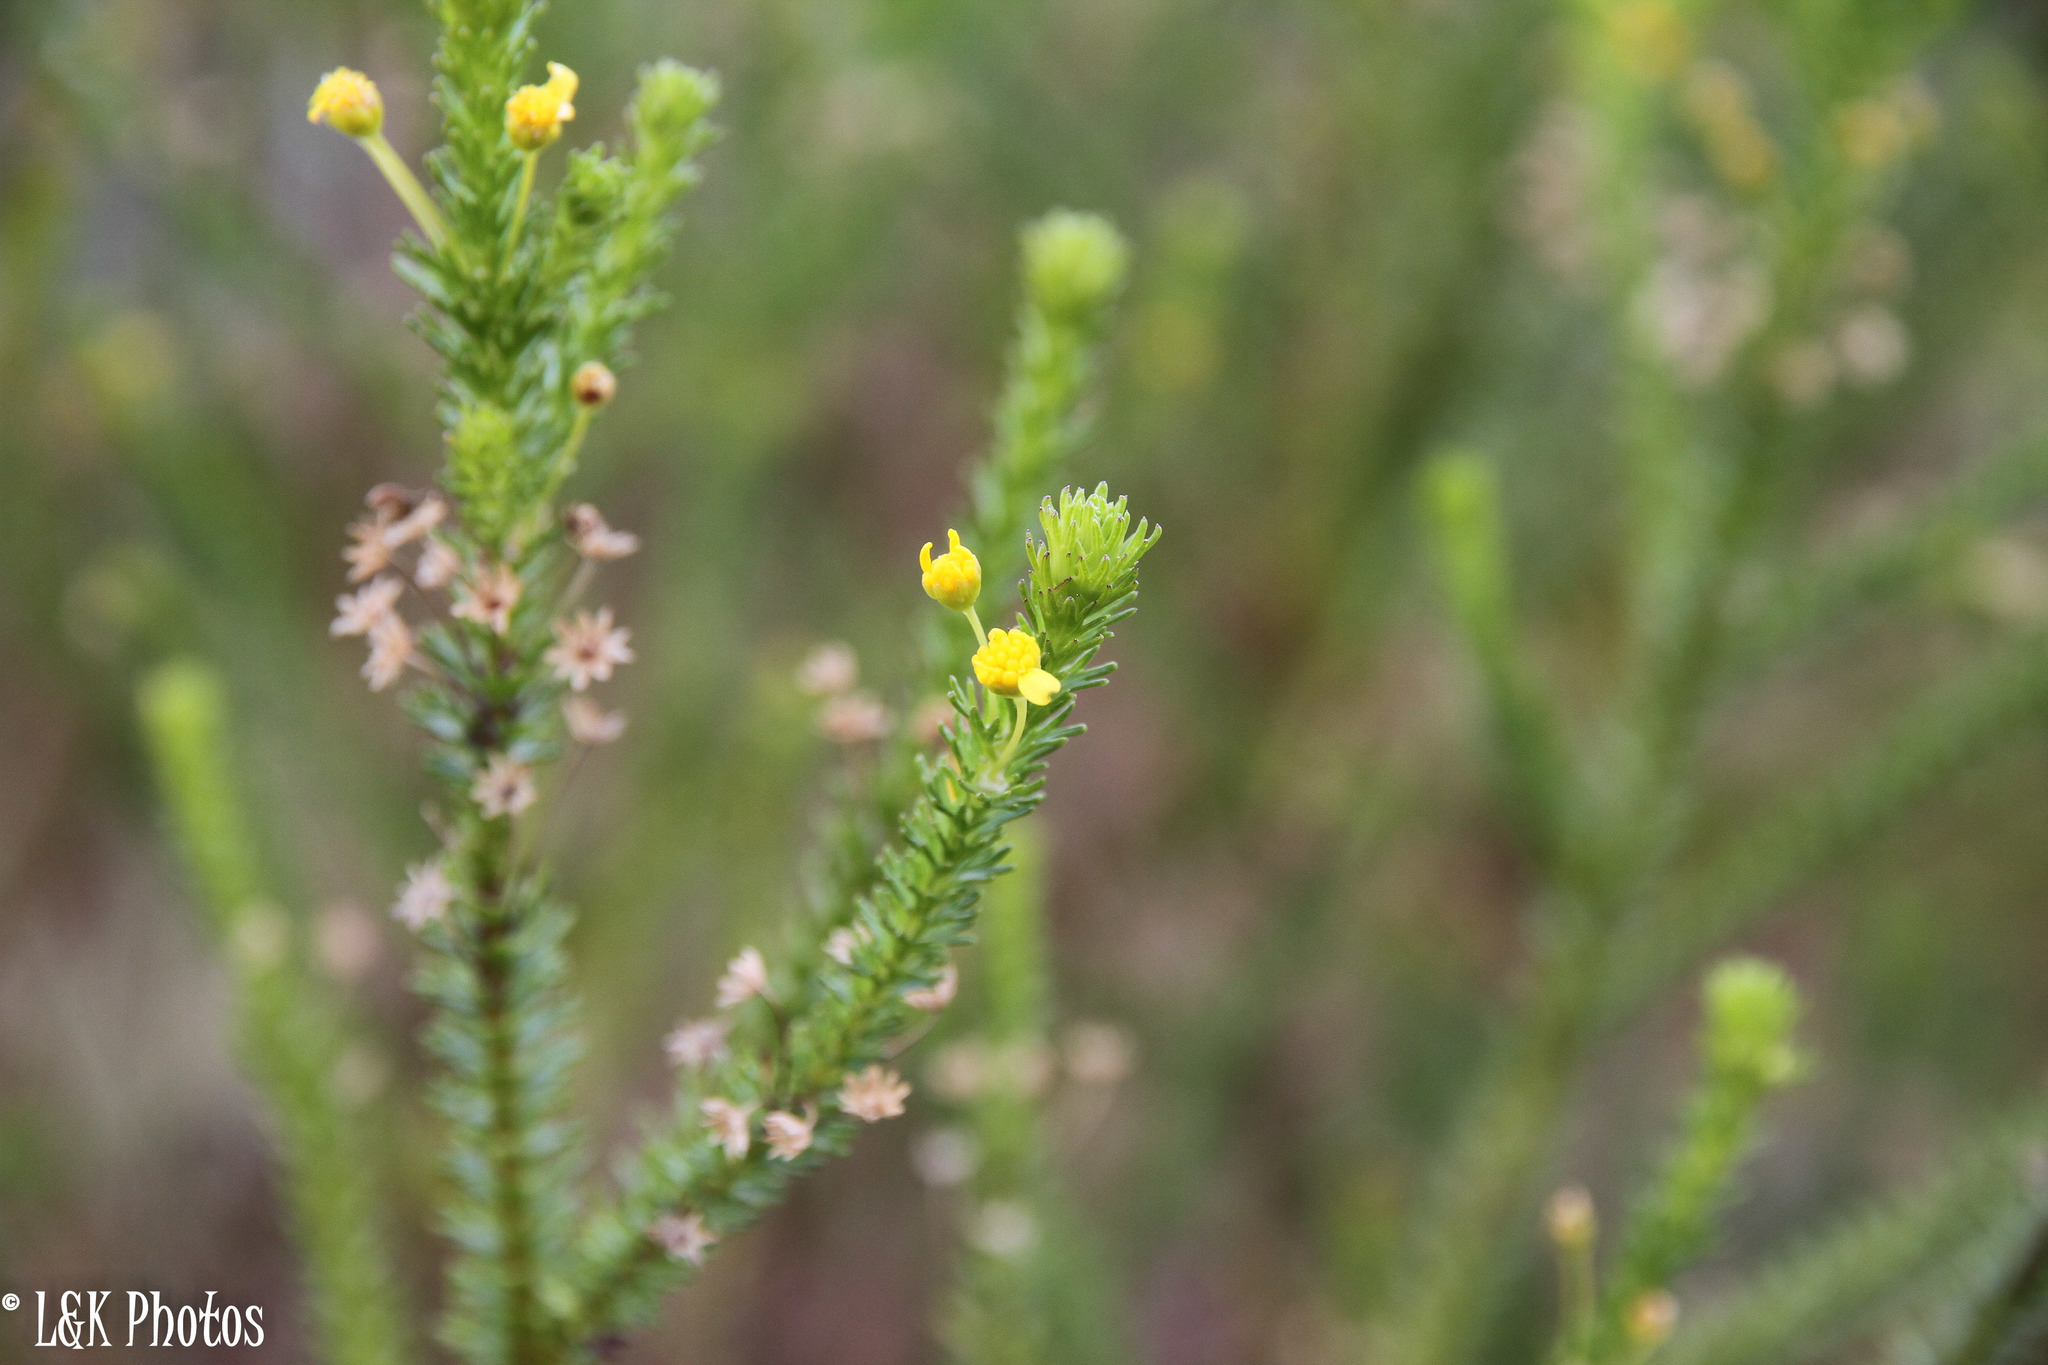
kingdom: Plantae
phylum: Tracheophyta
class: Magnoliopsida
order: Asterales
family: Asteraceae
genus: Euryops
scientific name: Euryops virgineus
